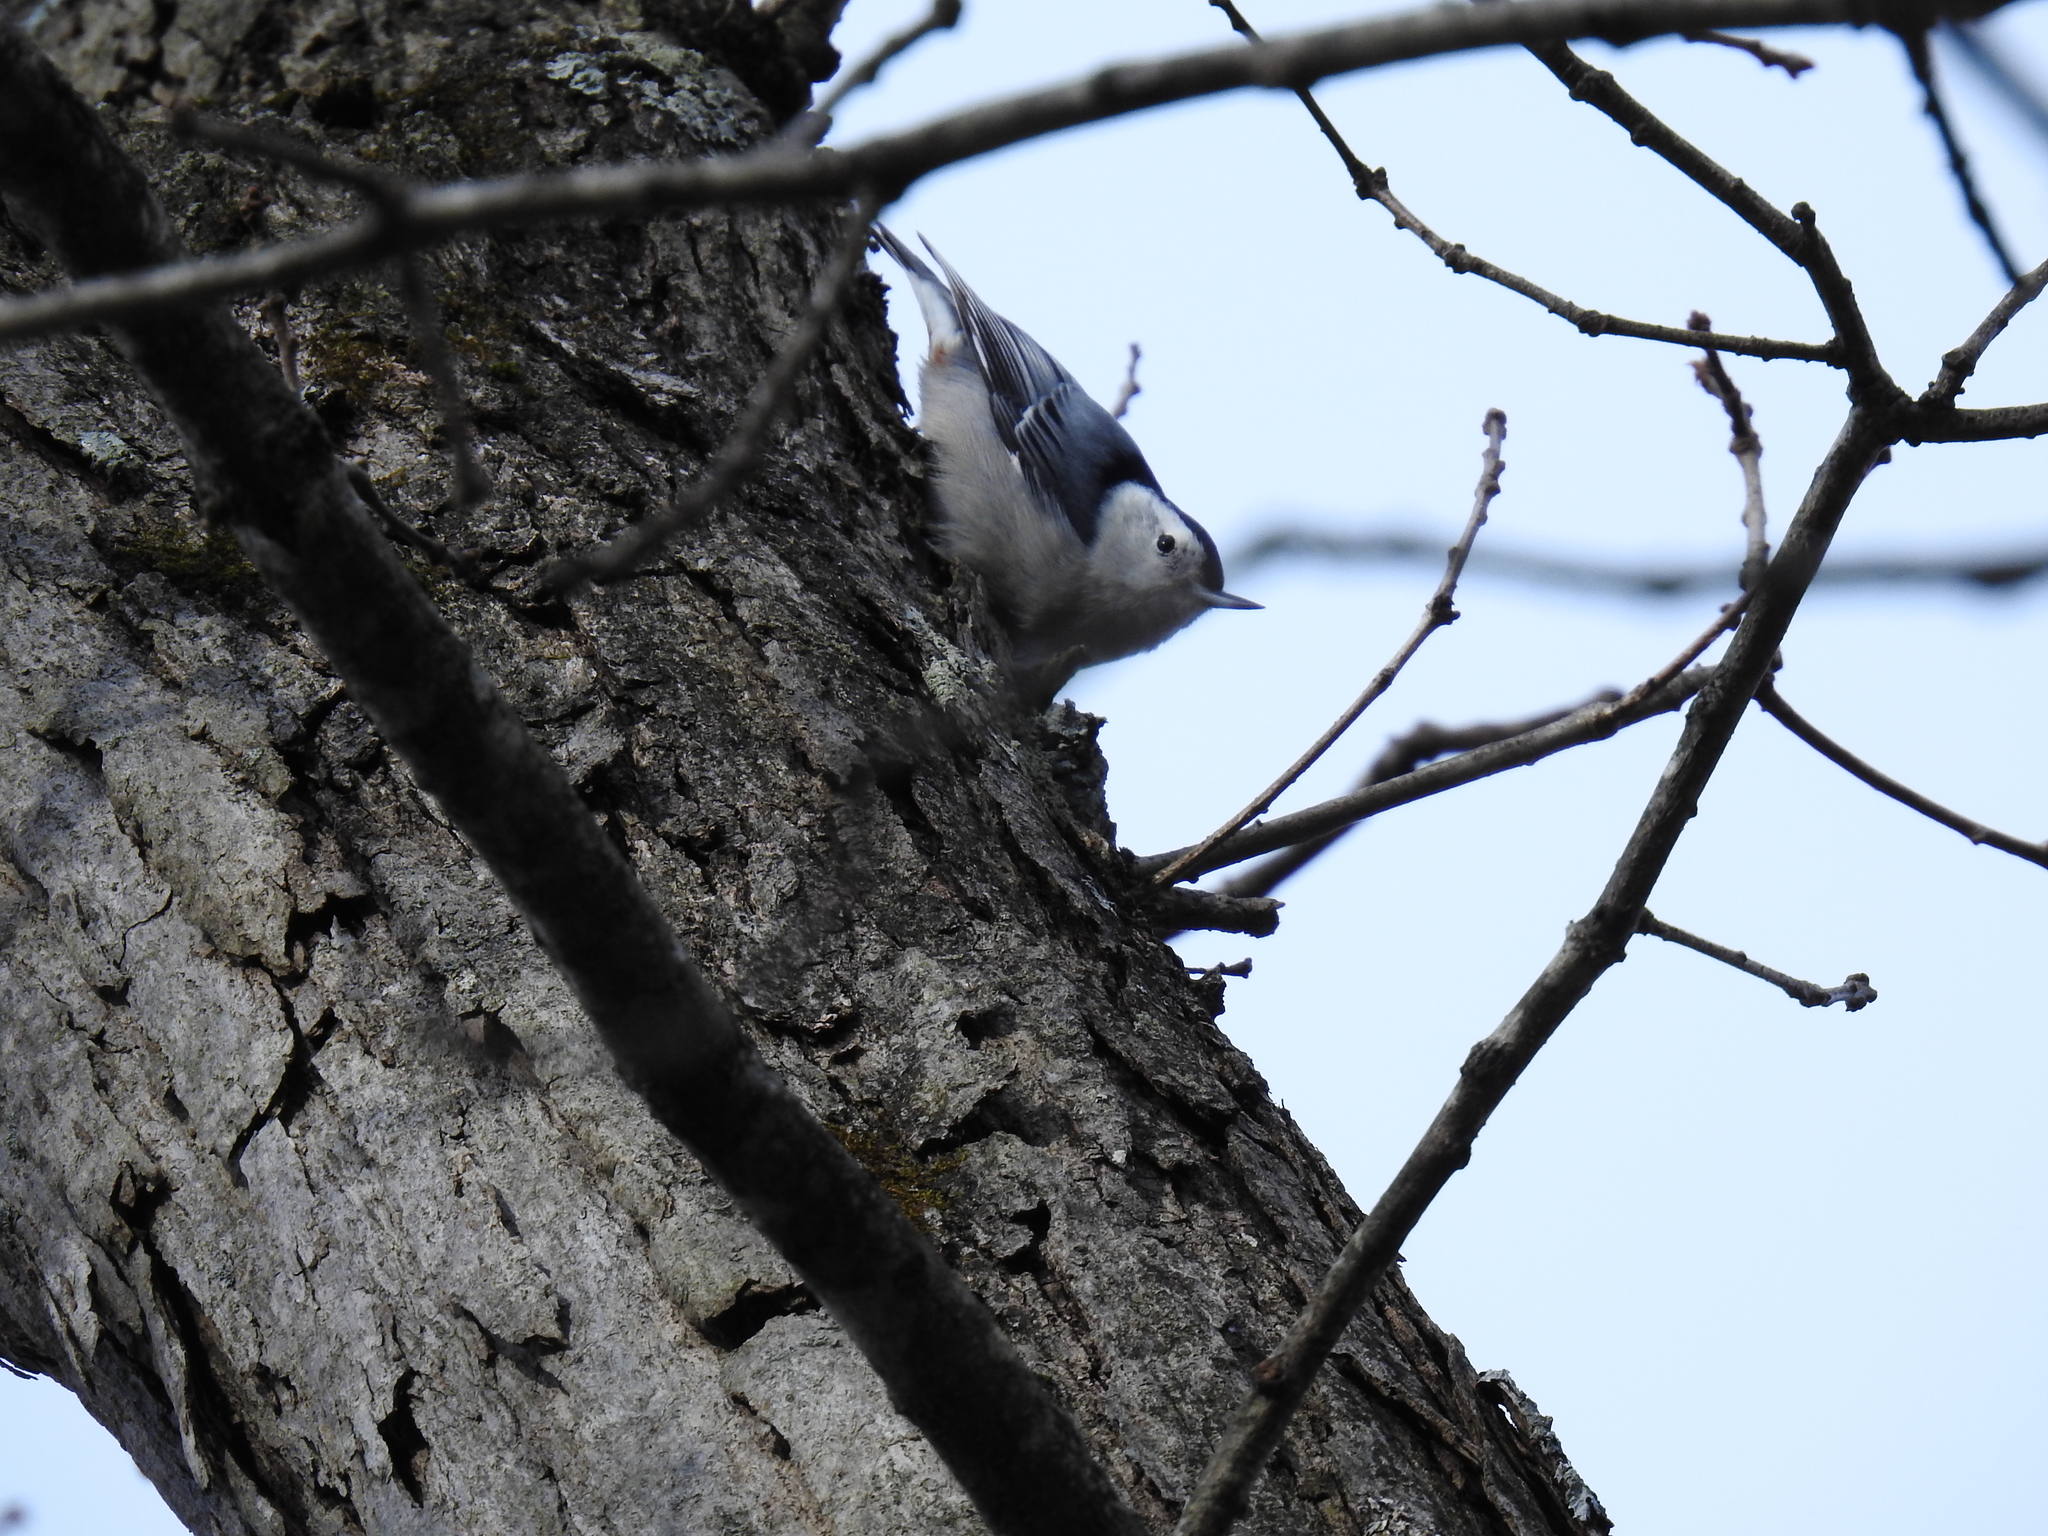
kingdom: Animalia
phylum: Chordata
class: Aves
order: Passeriformes
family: Sittidae
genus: Sitta
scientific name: Sitta carolinensis
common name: White-breasted nuthatch
